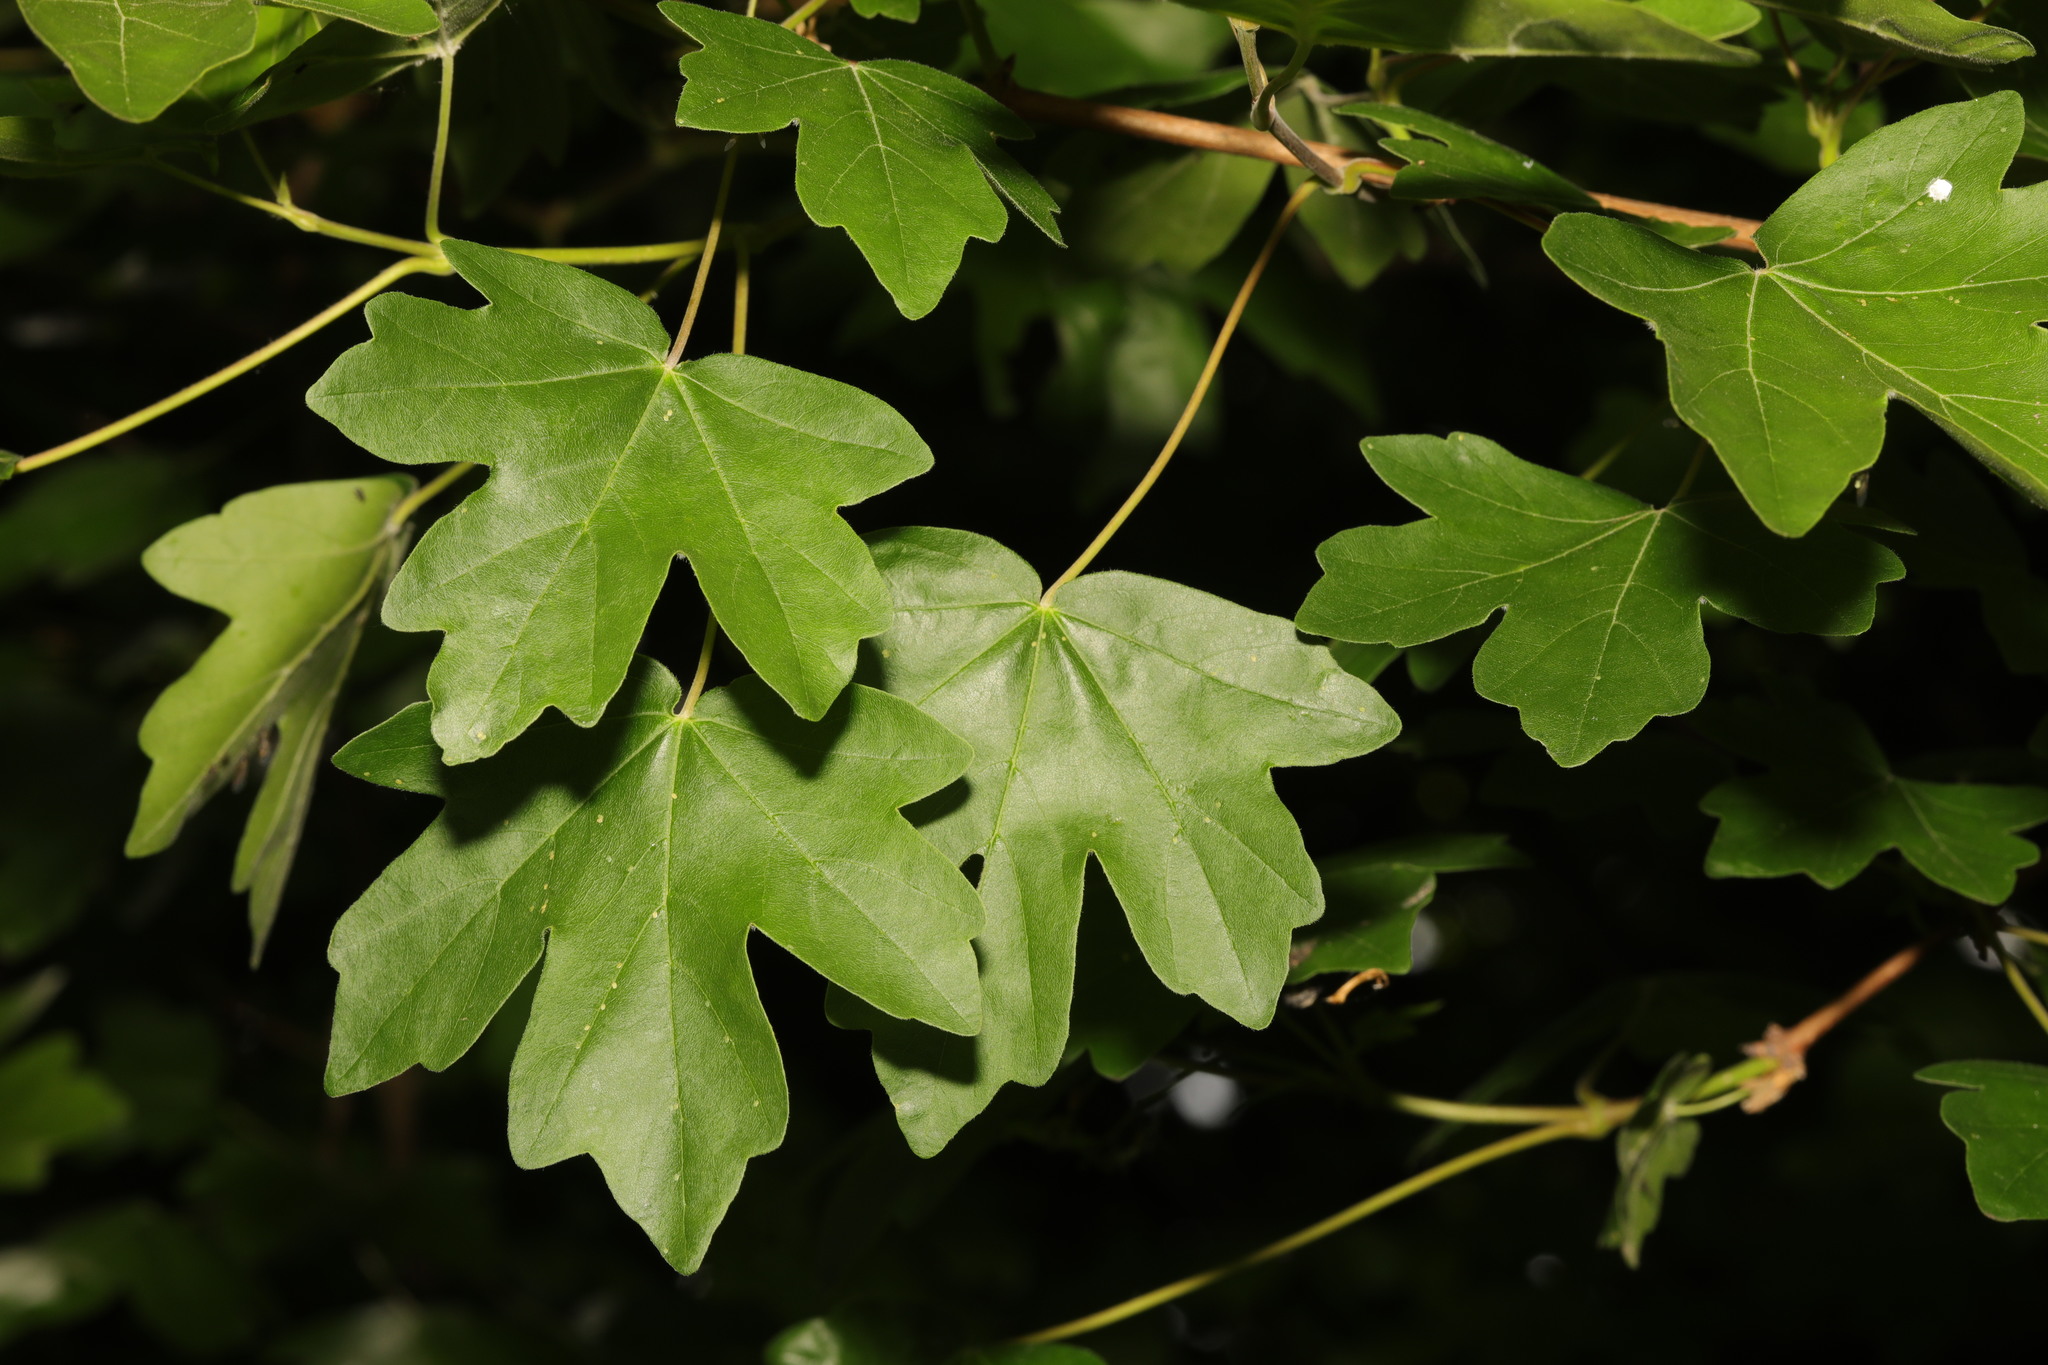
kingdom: Plantae
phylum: Tracheophyta
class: Magnoliopsida
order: Sapindales
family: Sapindaceae
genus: Acer
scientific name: Acer campestre
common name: Field maple
